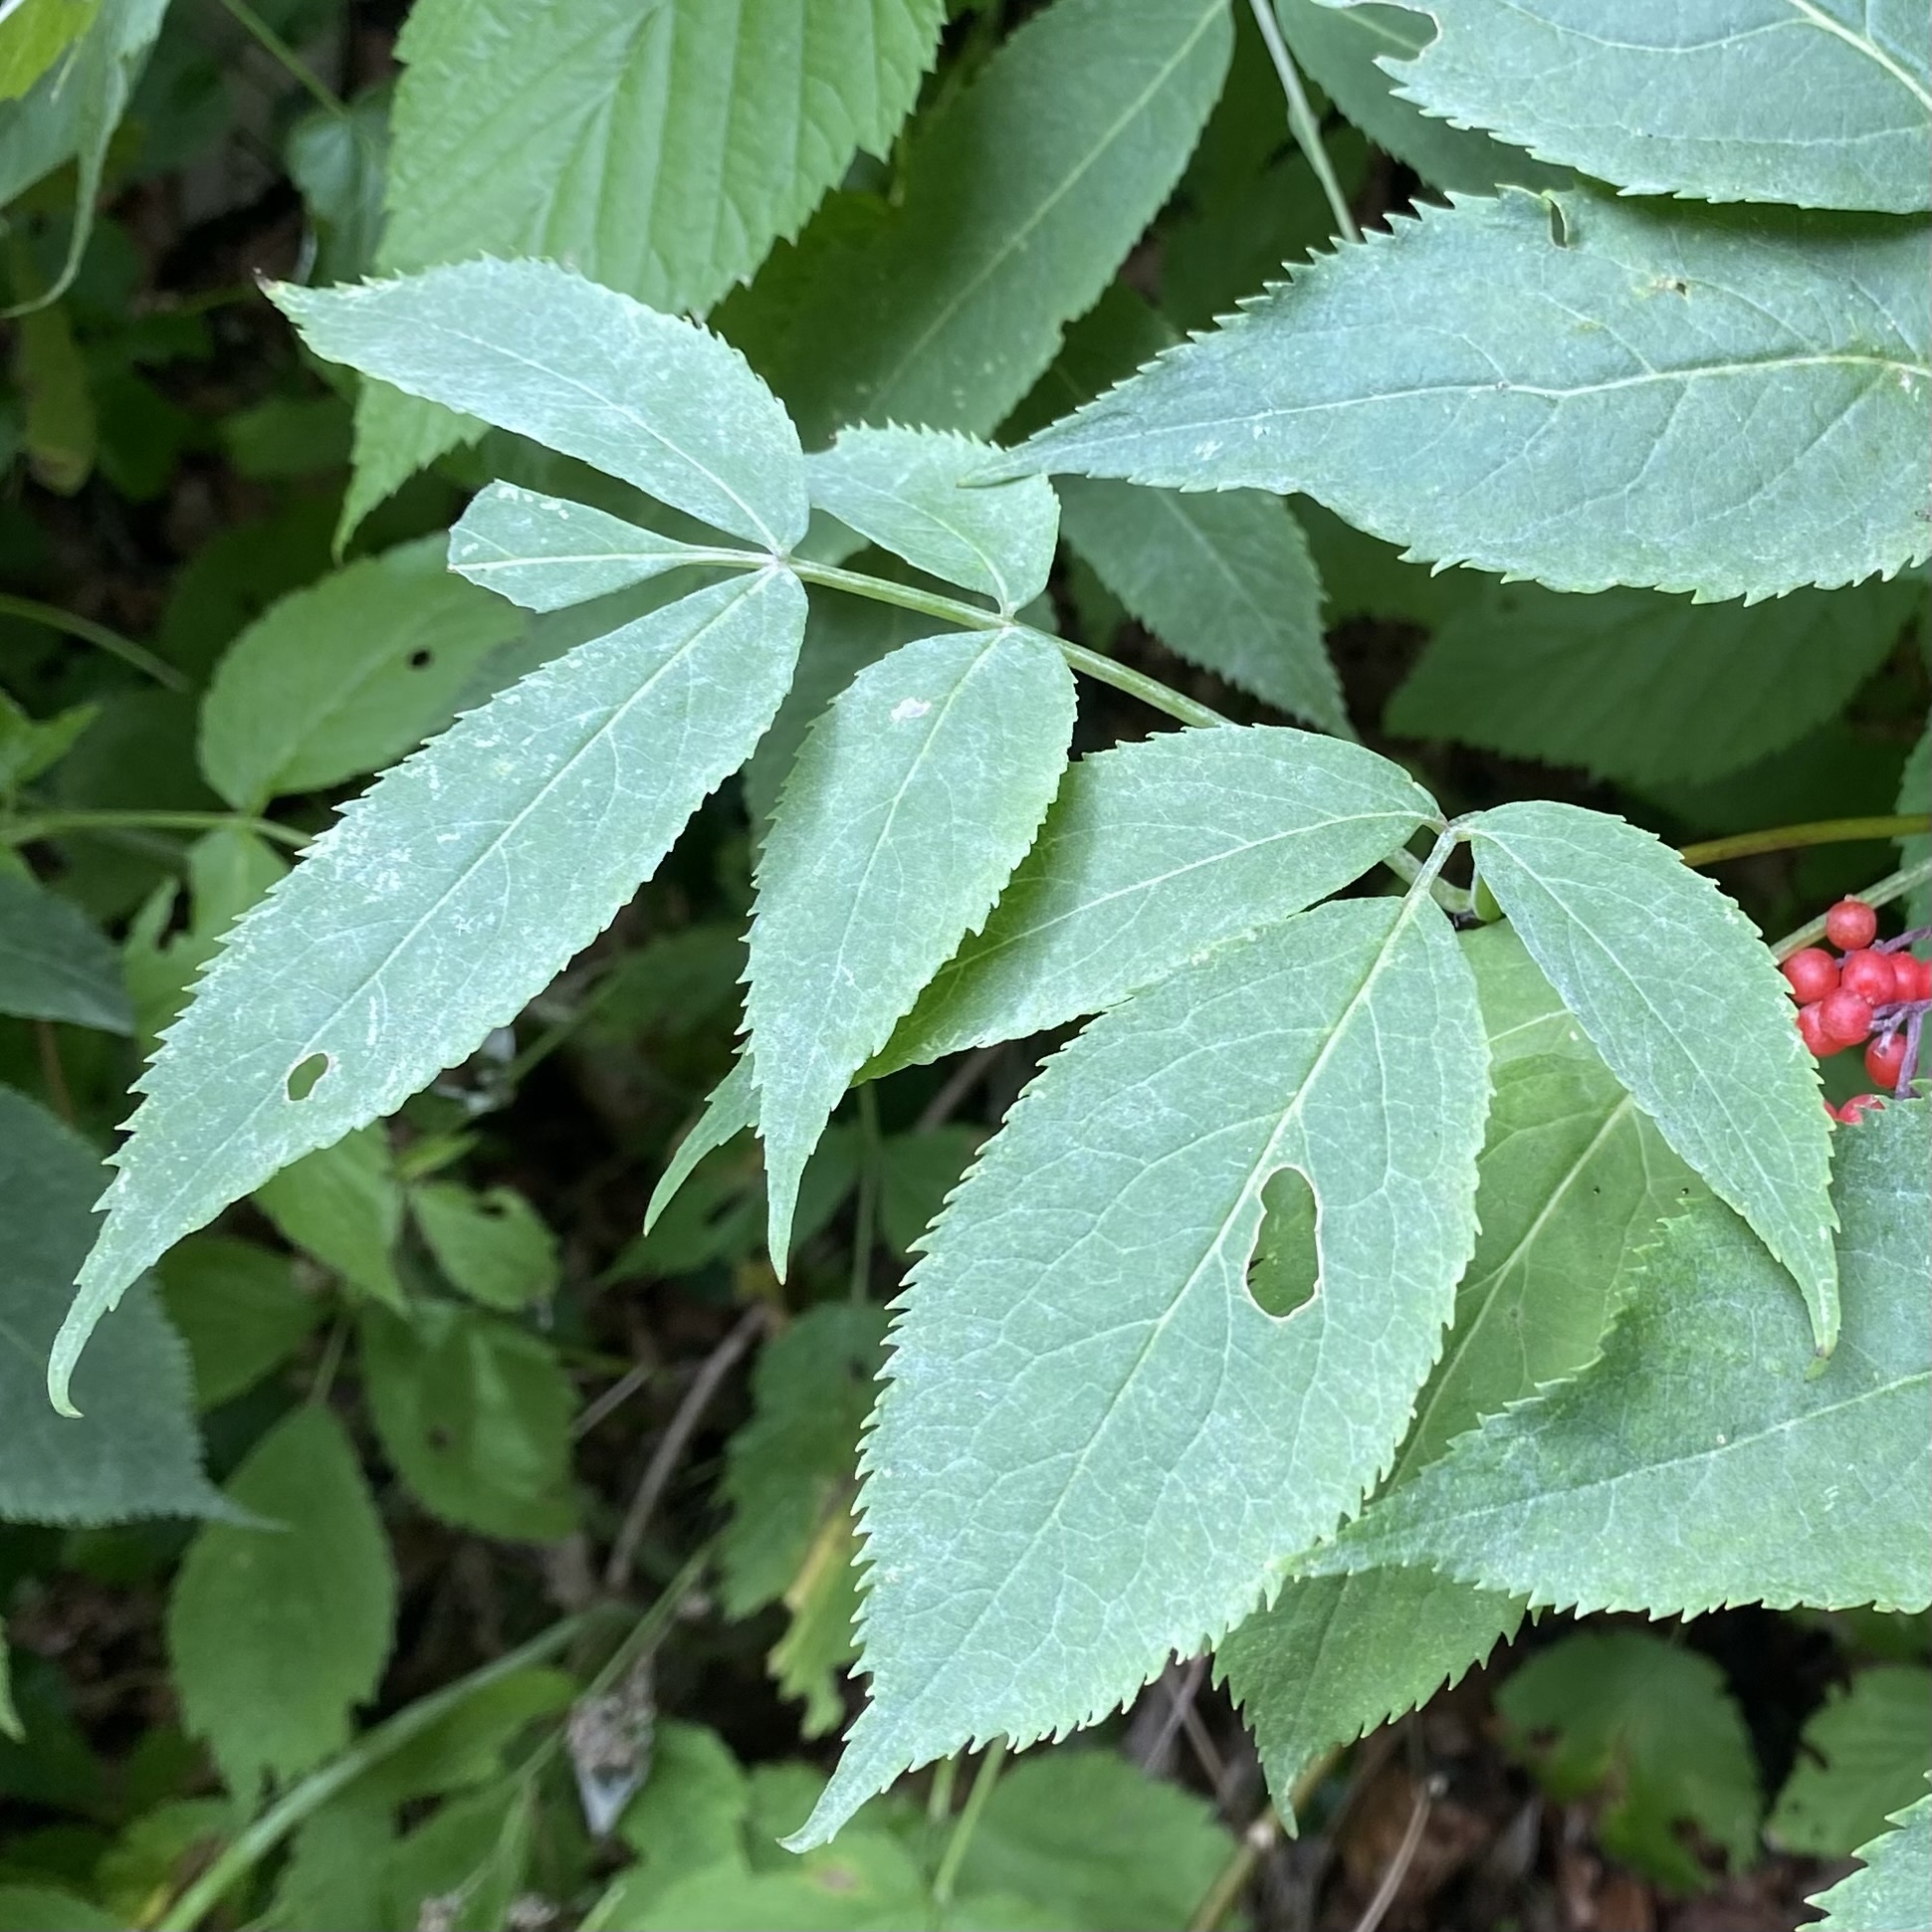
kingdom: Plantae
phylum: Tracheophyta
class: Magnoliopsida
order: Dipsacales
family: Viburnaceae
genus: Sambucus
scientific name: Sambucus racemosa
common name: Red-berried elder
